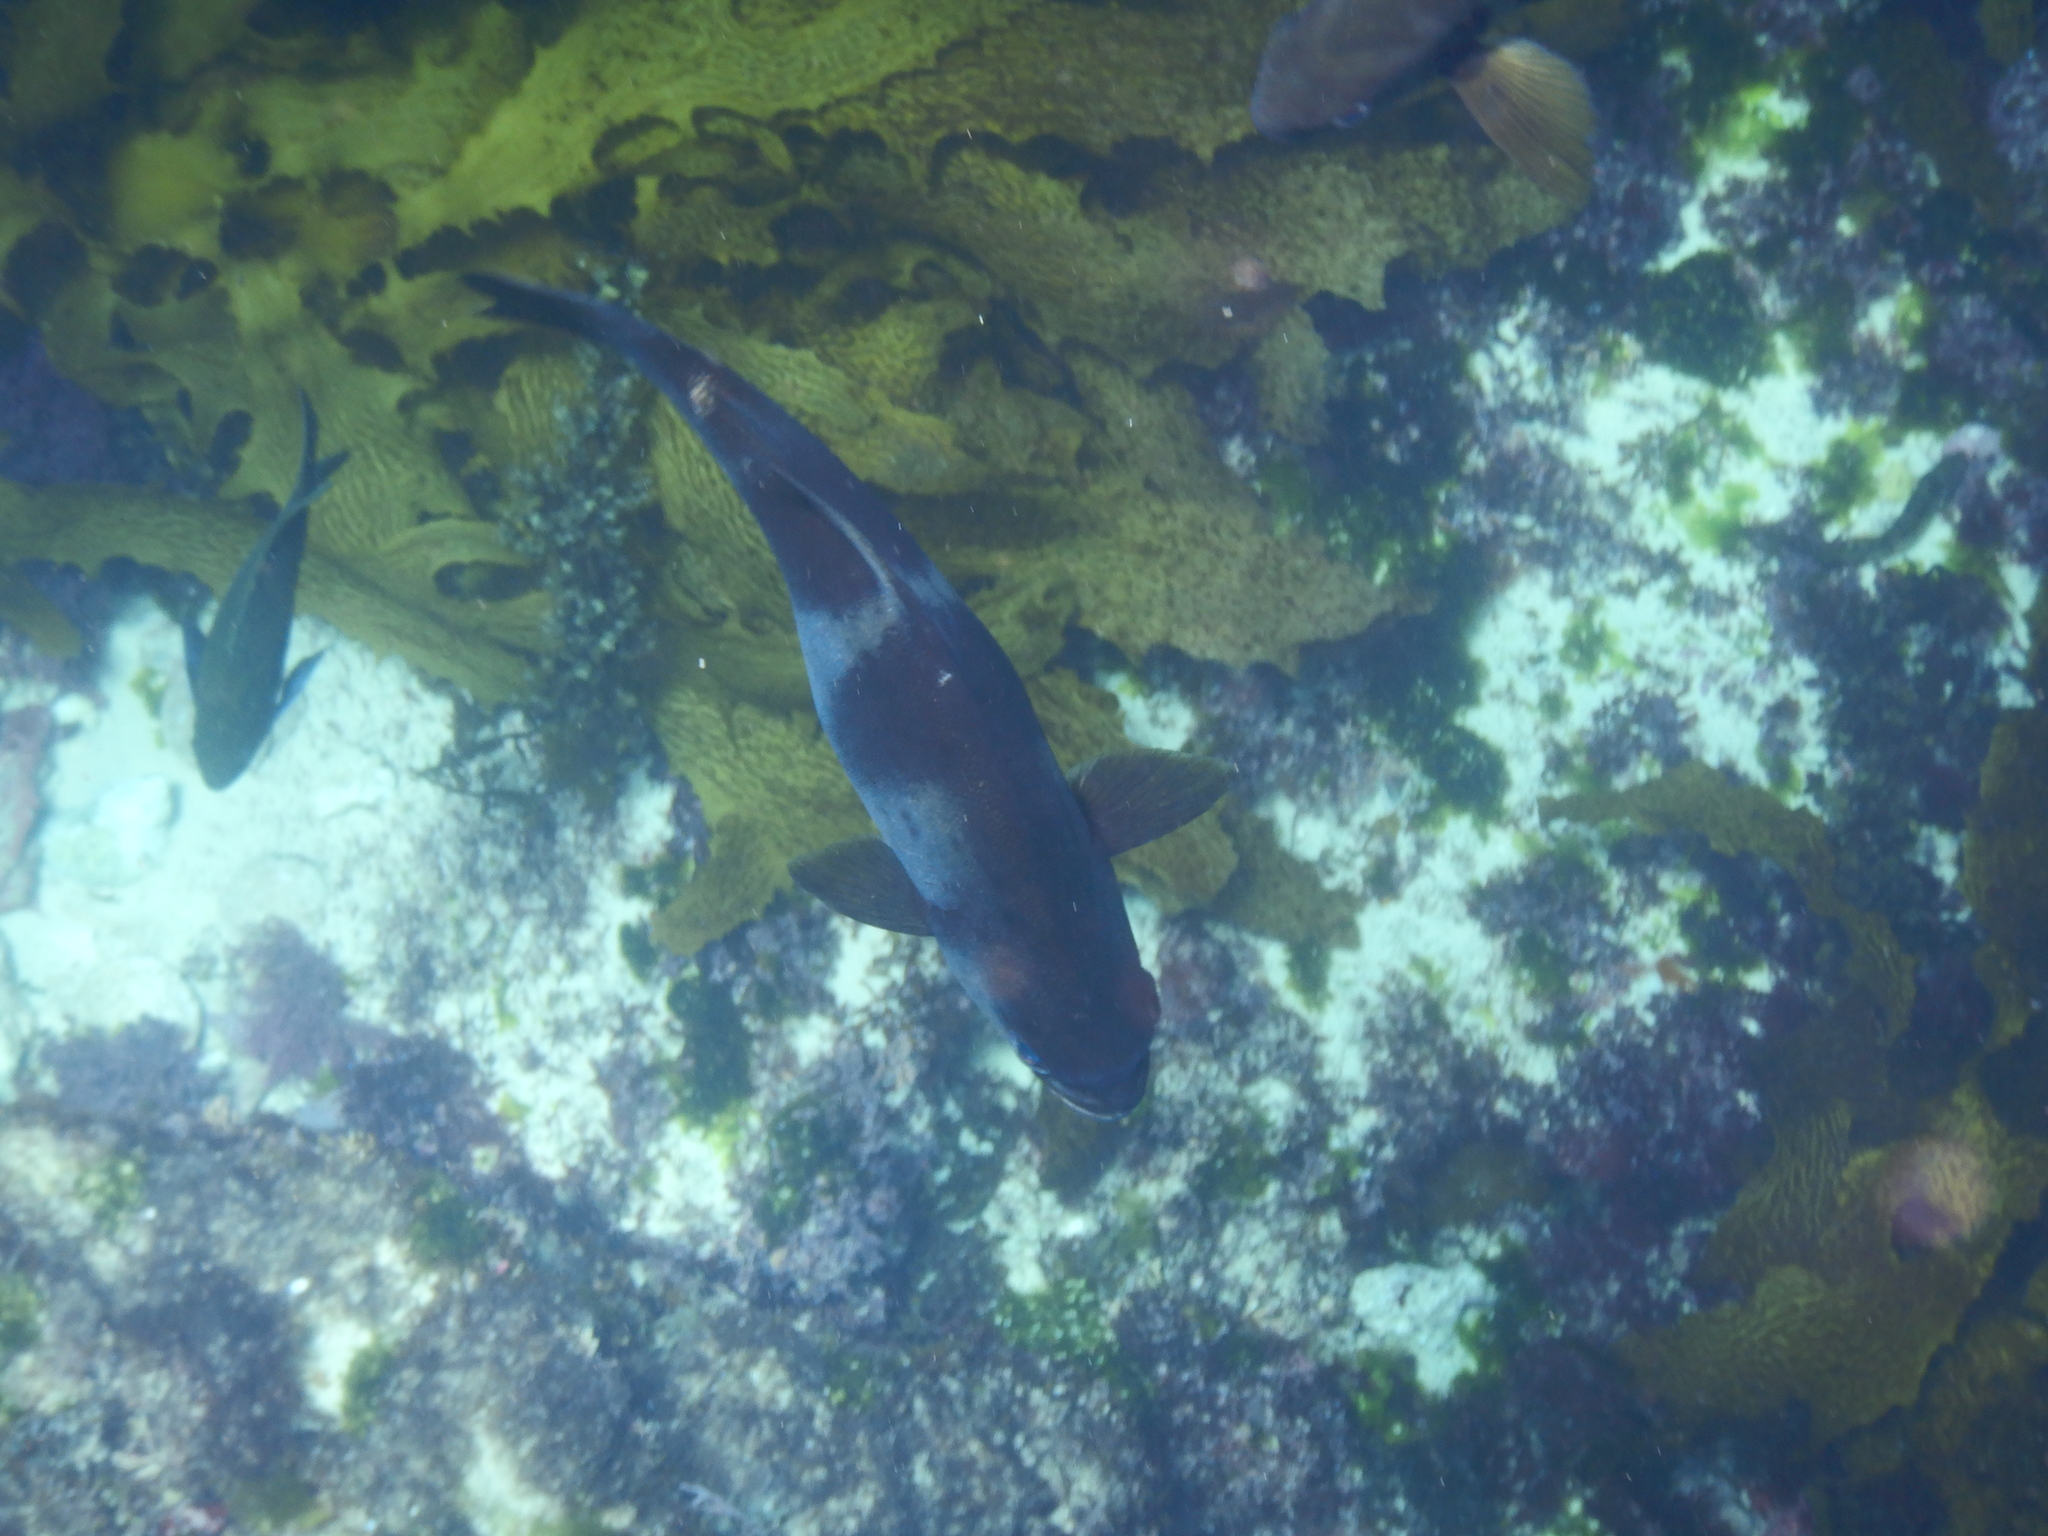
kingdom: Animalia
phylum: Chordata
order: Perciformes
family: Kyphosidae
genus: Scorpis
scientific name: Scorpis georgiana
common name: Banded sweep
